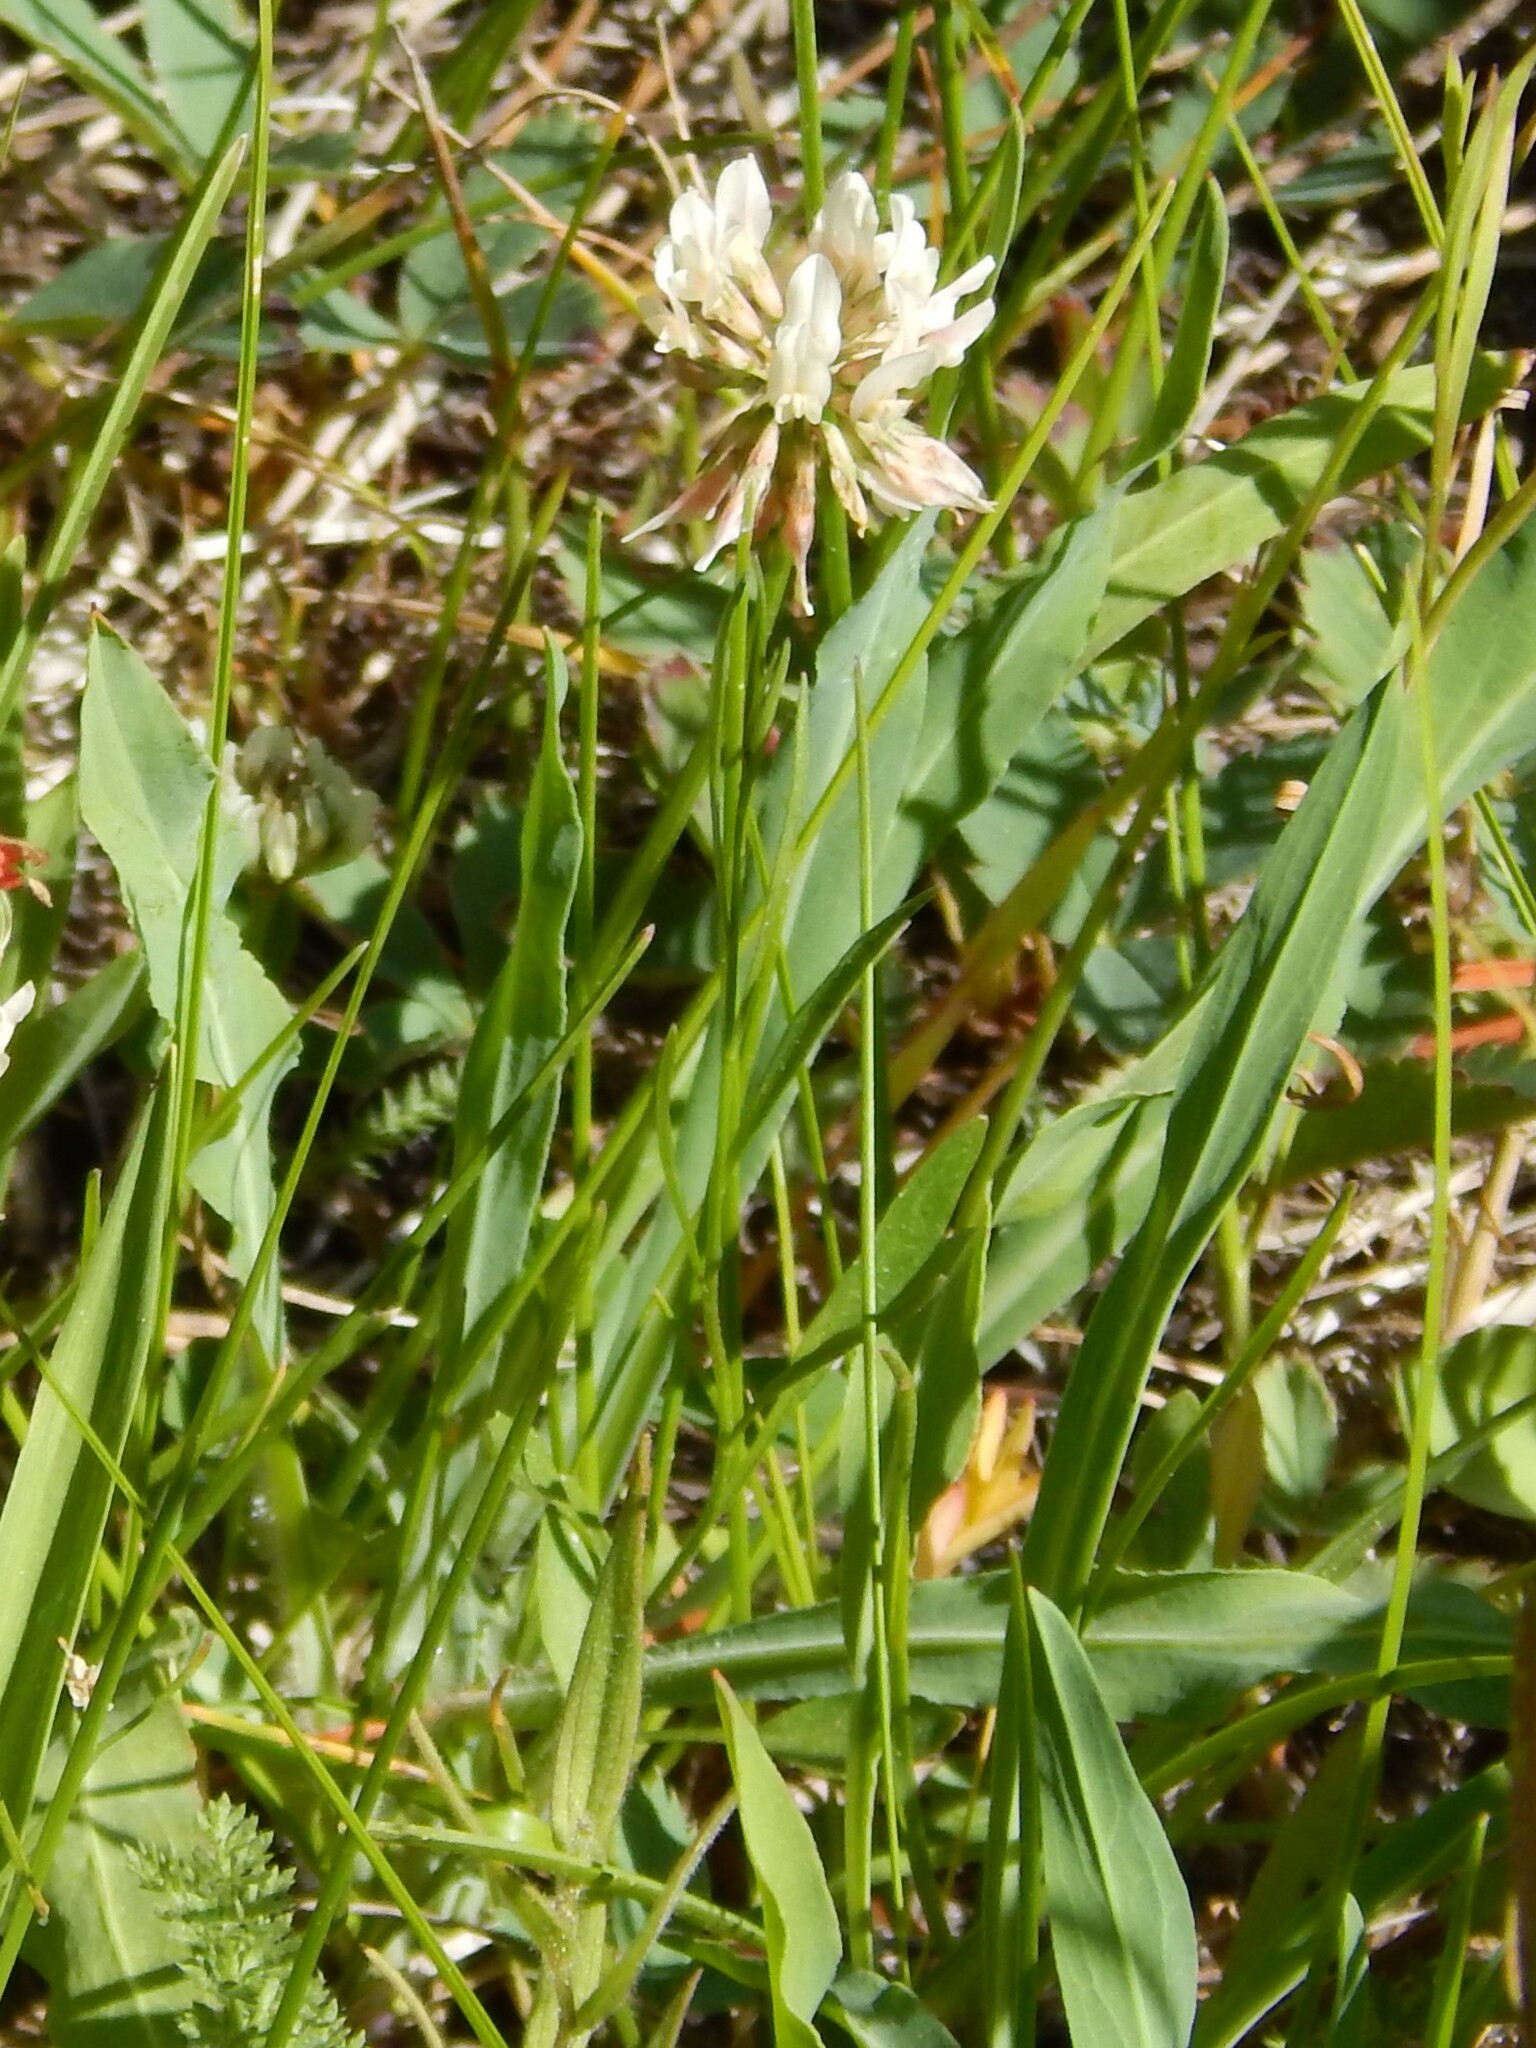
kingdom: Plantae
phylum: Tracheophyta
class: Magnoliopsida
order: Fabales
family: Fabaceae
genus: Trifolium
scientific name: Trifolium repens
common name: White clover
